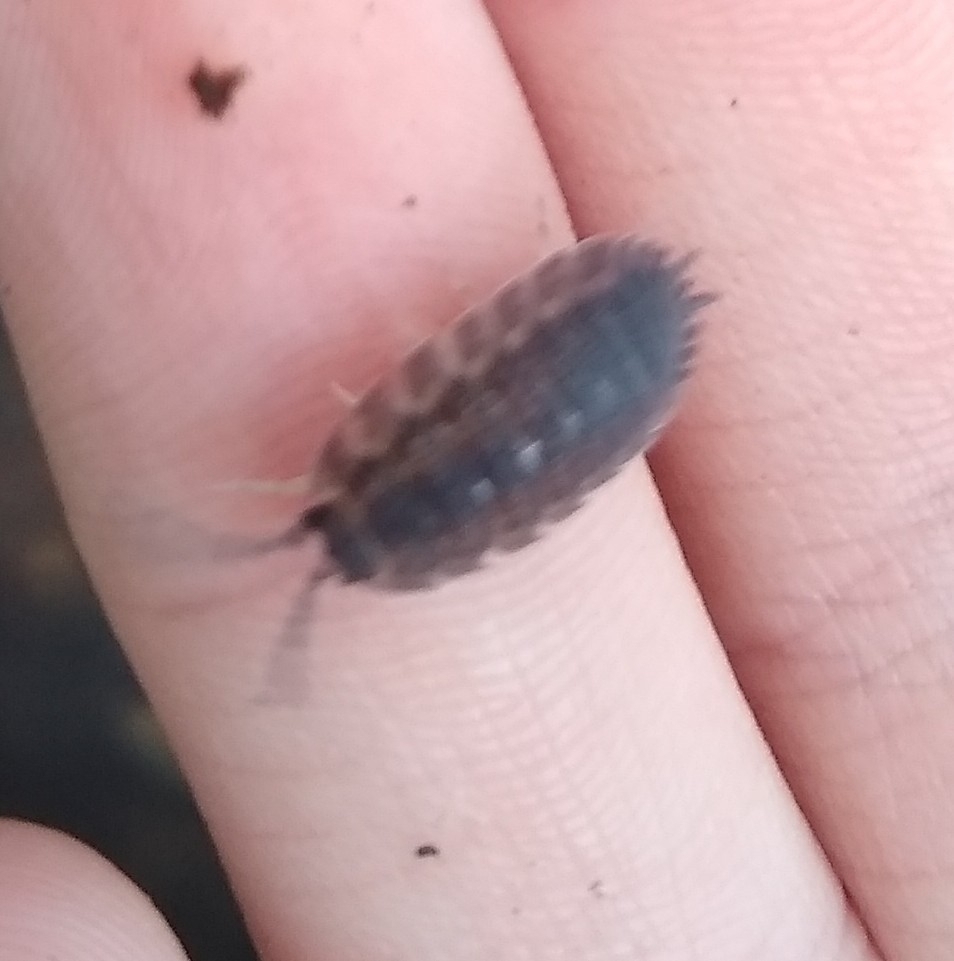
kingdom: Animalia
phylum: Arthropoda
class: Malacostraca
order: Isopoda
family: Porcellionidae
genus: Porcellio
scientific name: Porcellio scaber
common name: Common rough woodlouse
